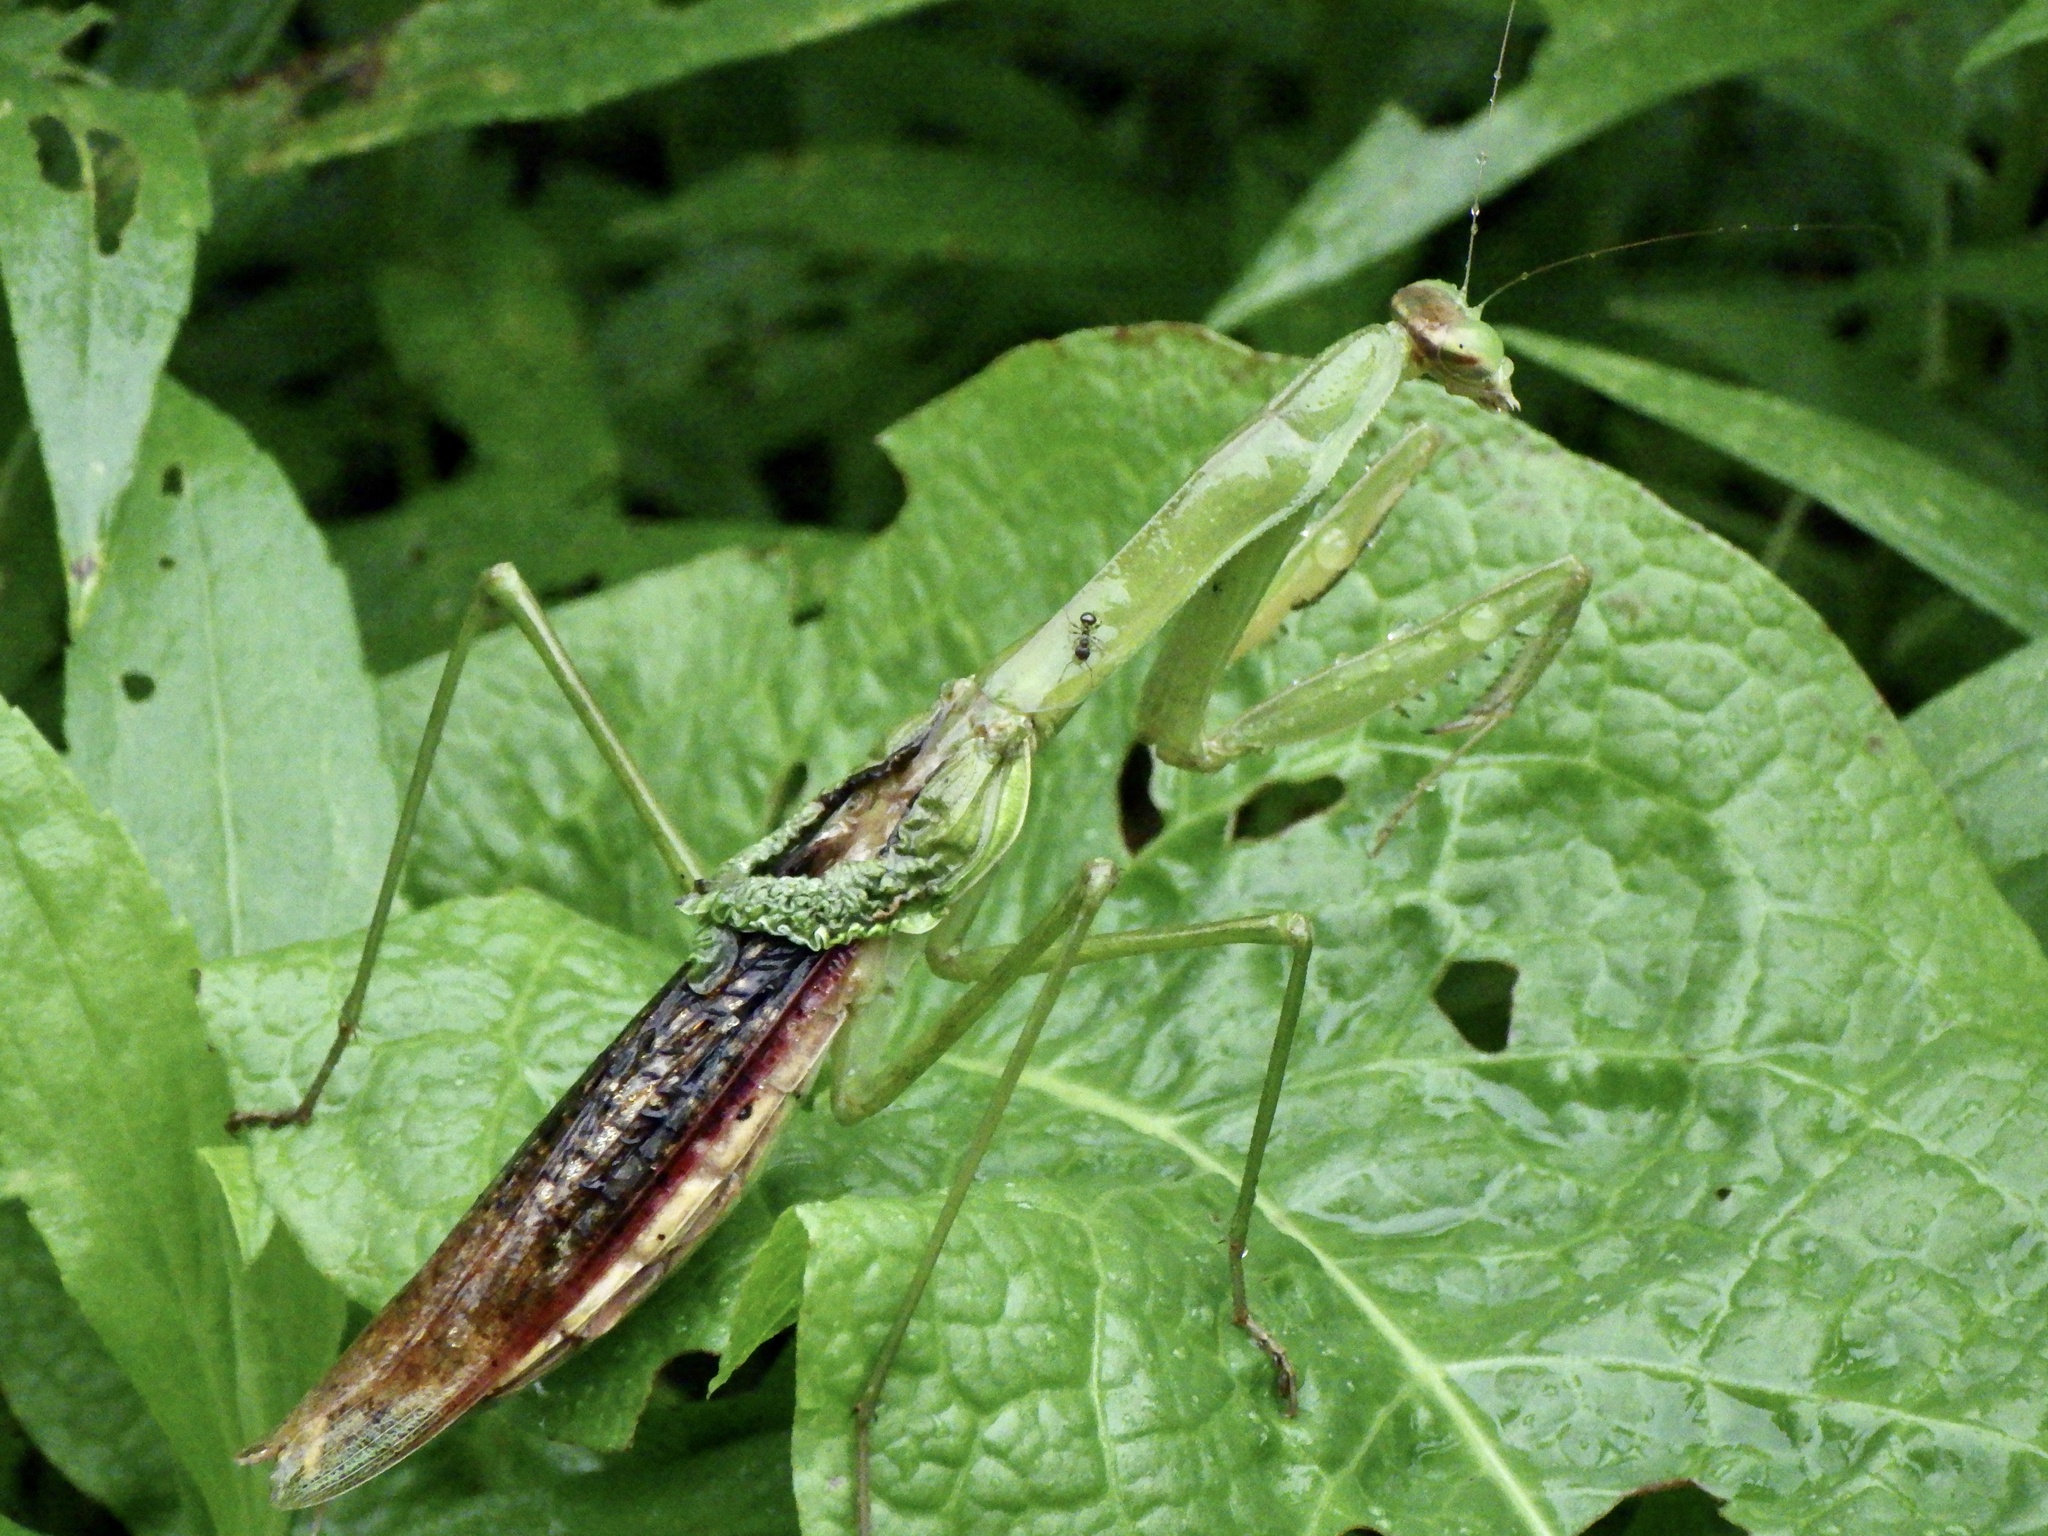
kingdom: Animalia
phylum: Arthropoda
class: Insecta
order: Mantodea
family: Mantidae
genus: Tenodera
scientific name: Tenodera sinensis
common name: Chinese mantis
